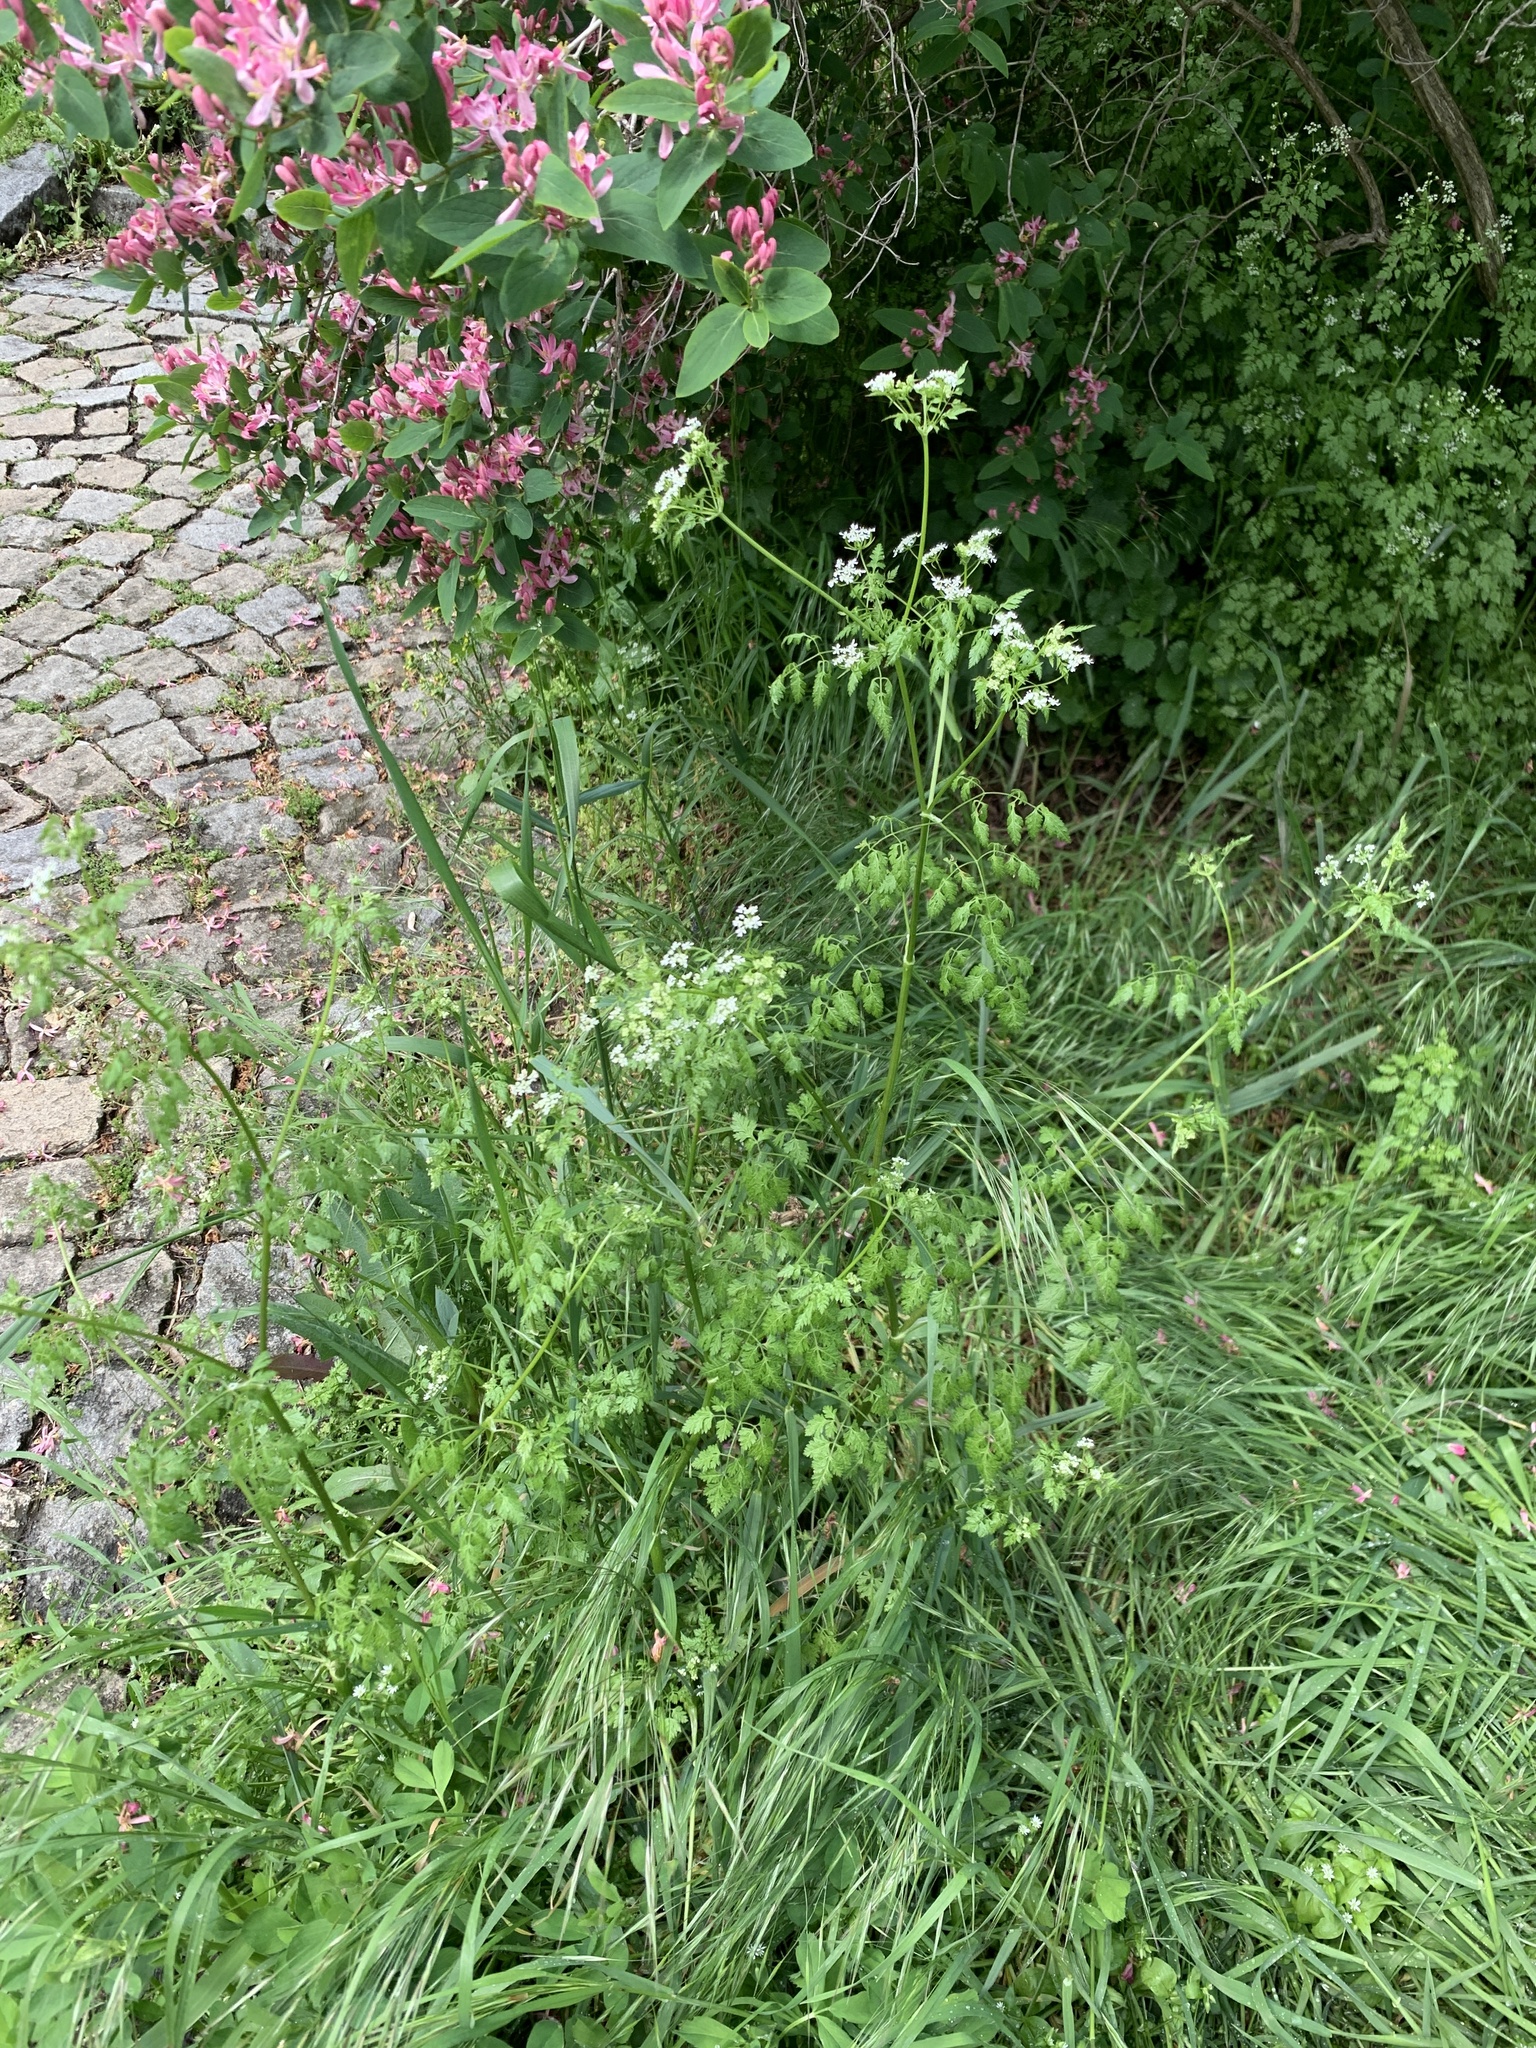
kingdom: Plantae
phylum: Tracheophyta
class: Magnoliopsida
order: Apiales
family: Apiaceae
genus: Anthriscus
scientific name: Anthriscus cerefolium
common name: Garden chervil
